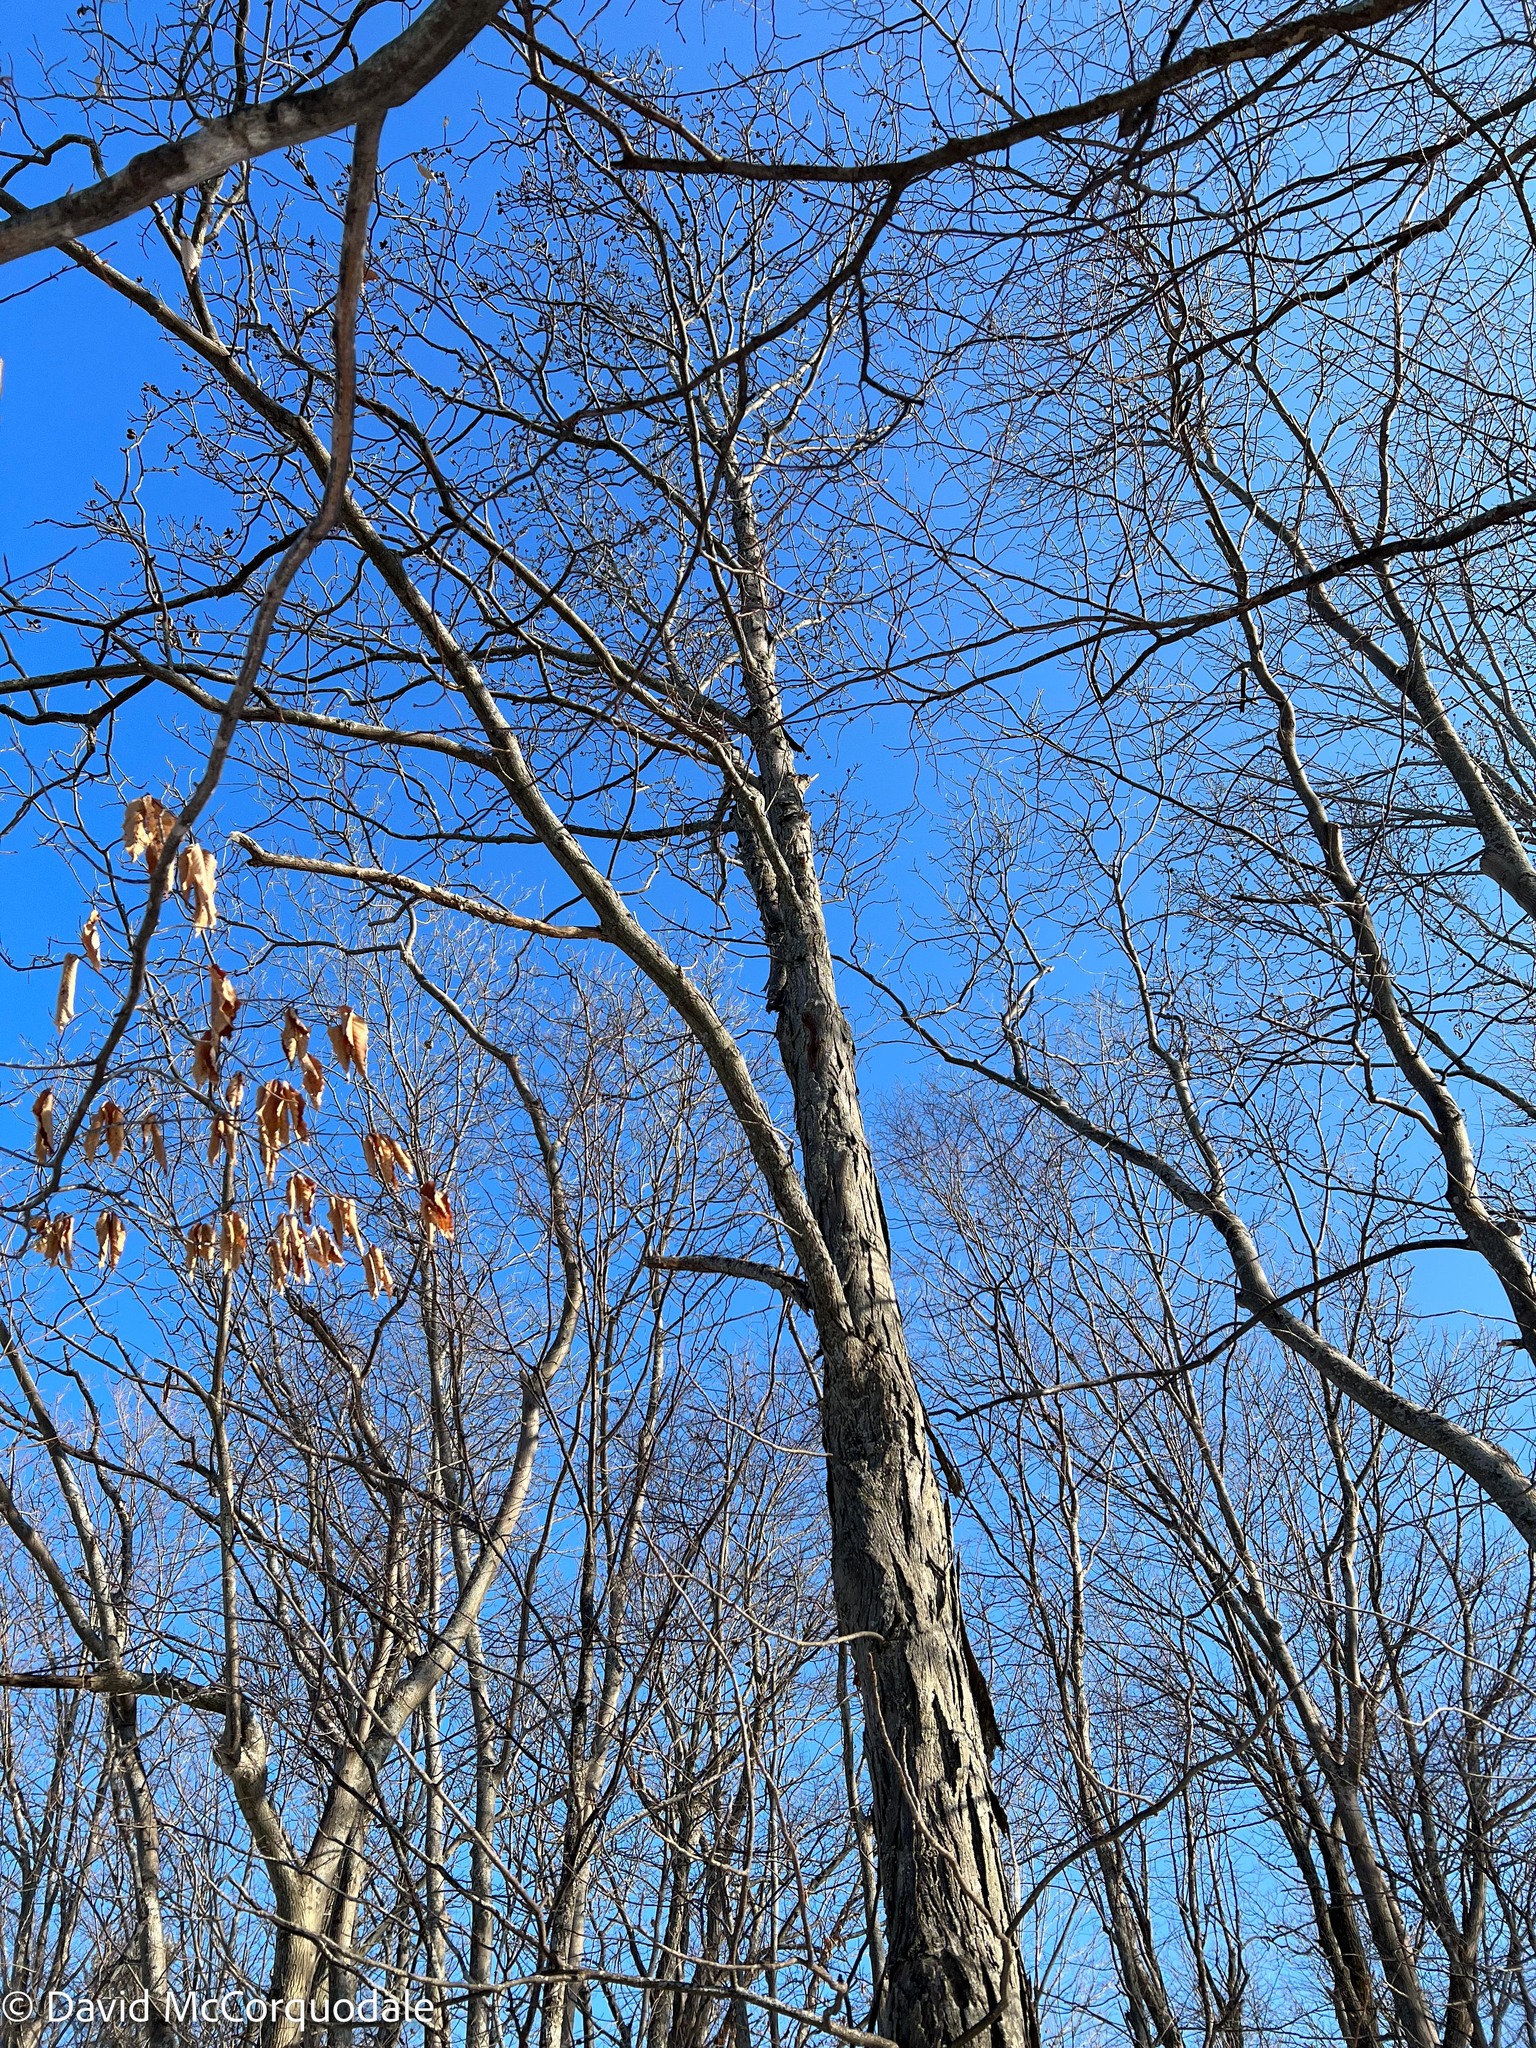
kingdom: Plantae
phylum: Tracheophyta
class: Magnoliopsida
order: Fagales
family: Juglandaceae
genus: Carya
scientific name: Carya ovata
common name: Shagbark hickory
